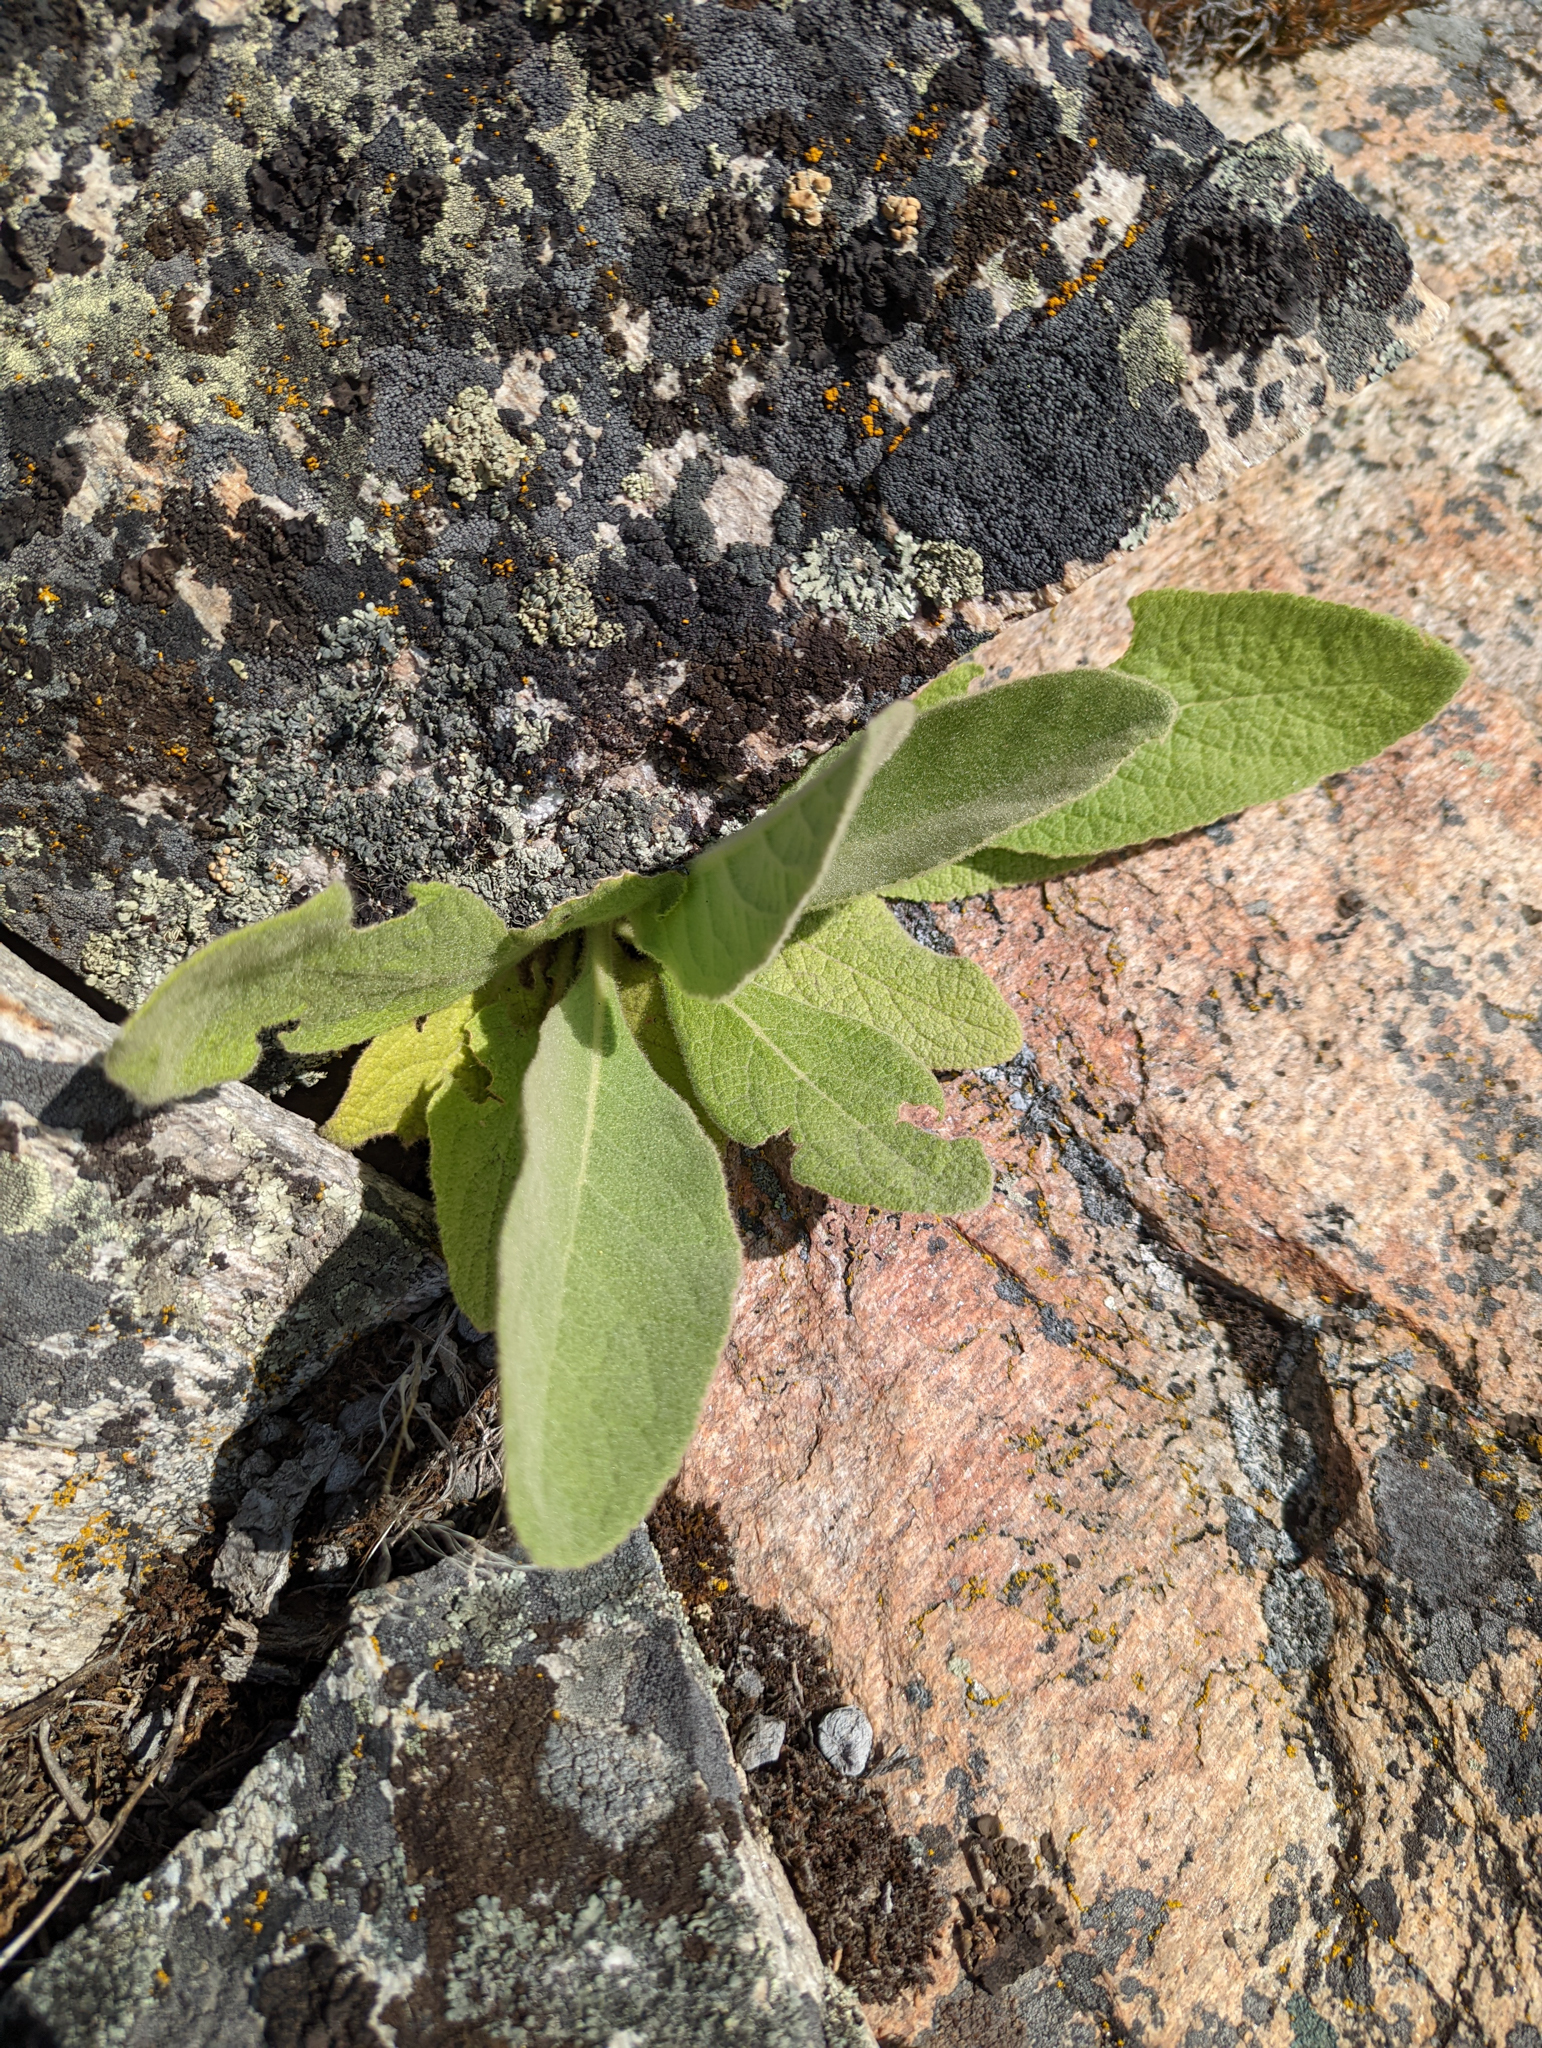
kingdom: Plantae
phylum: Tracheophyta
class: Magnoliopsida
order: Lamiales
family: Scrophulariaceae
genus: Verbascum
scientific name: Verbascum thapsus
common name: Common mullein
